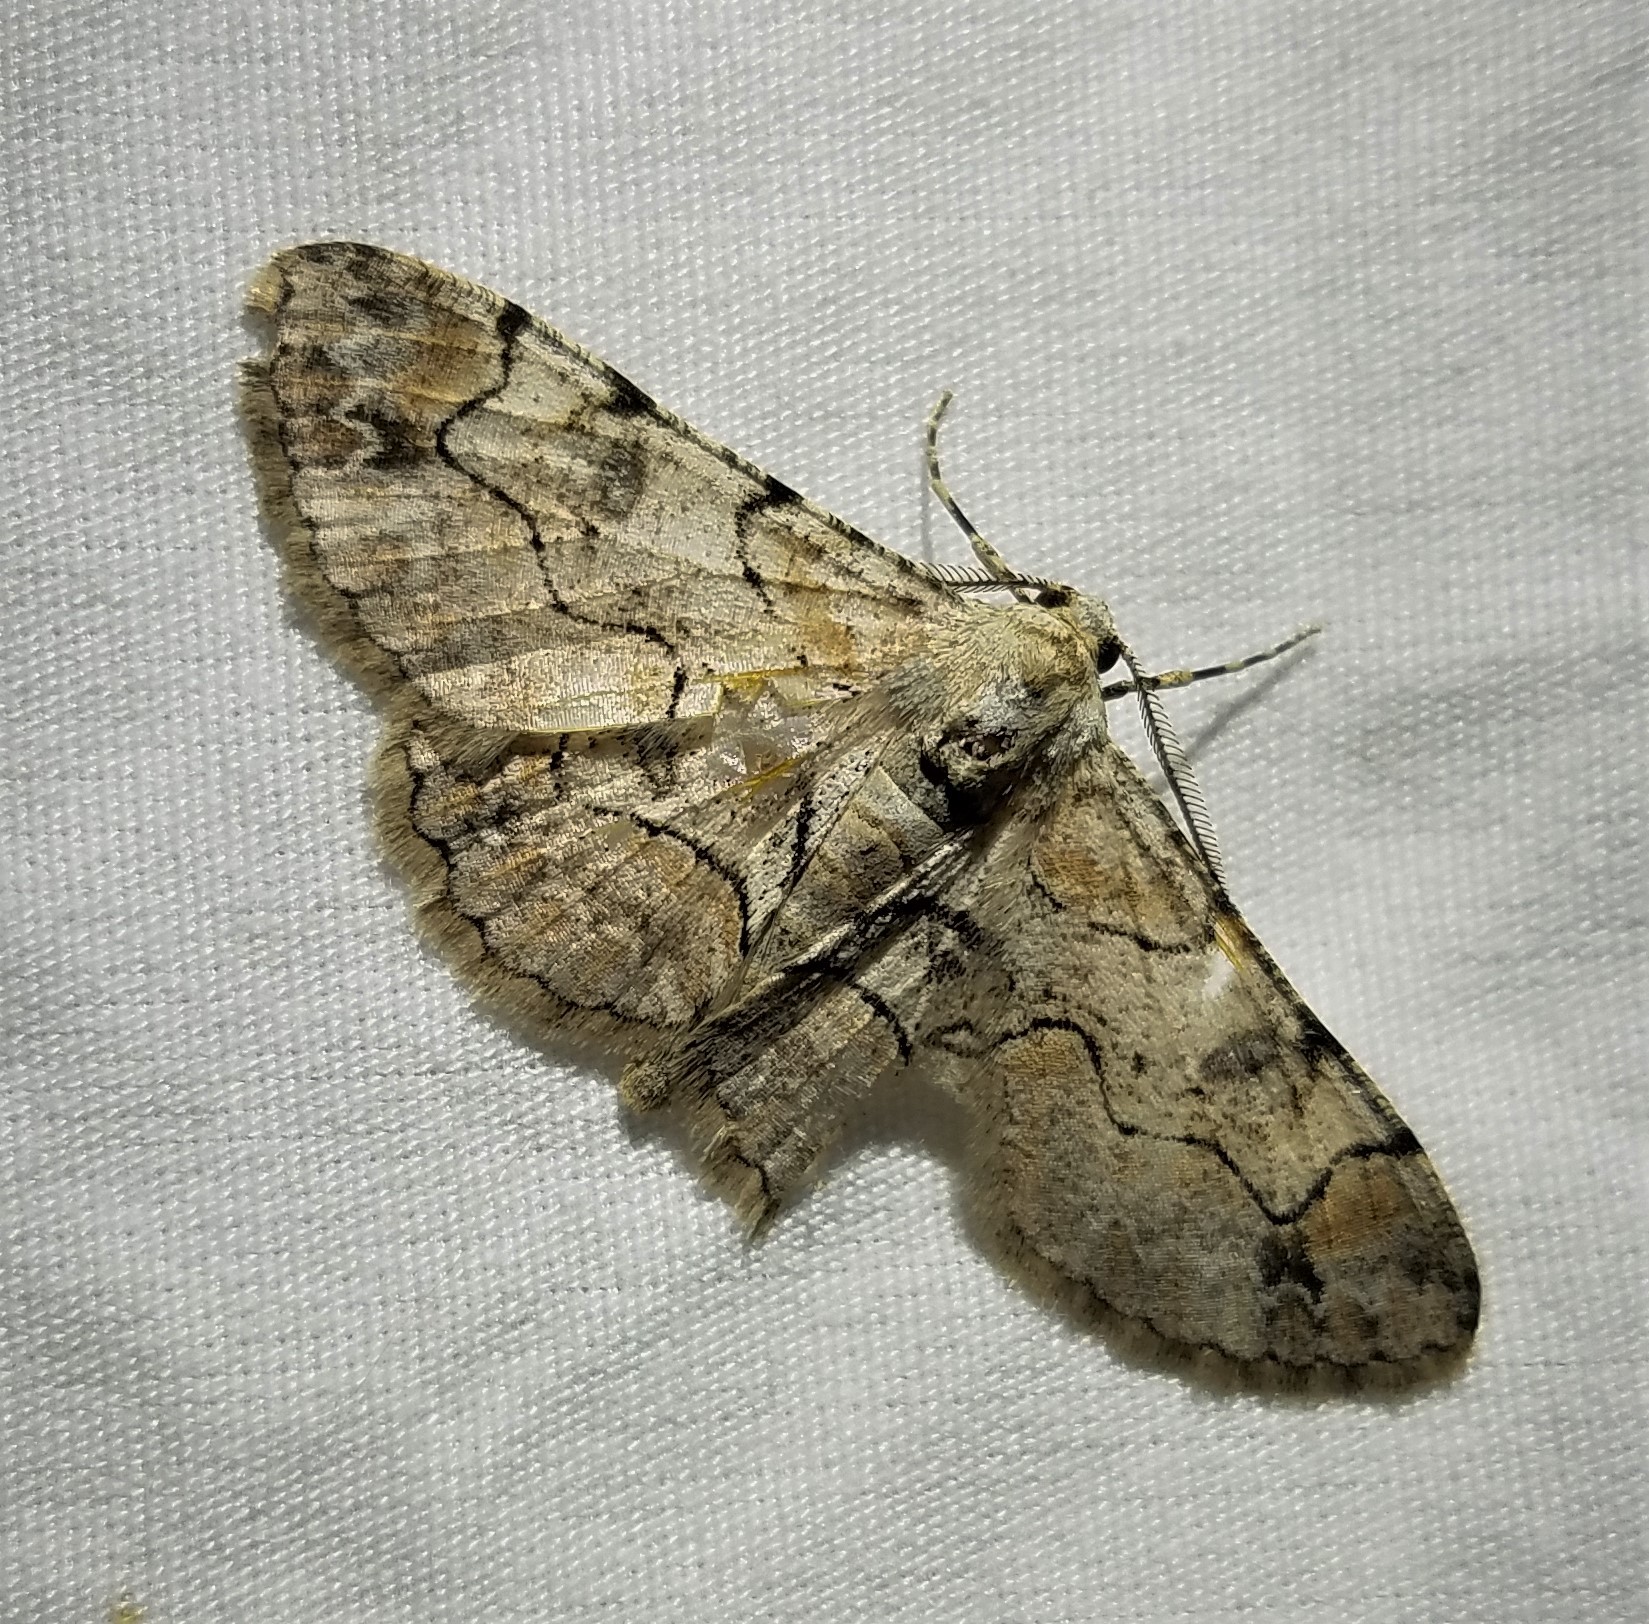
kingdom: Animalia
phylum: Arthropoda
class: Insecta
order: Lepidoptera
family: Geometridae
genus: Iridopsis
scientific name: Iridopsis larvaria
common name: Bent-line gray
